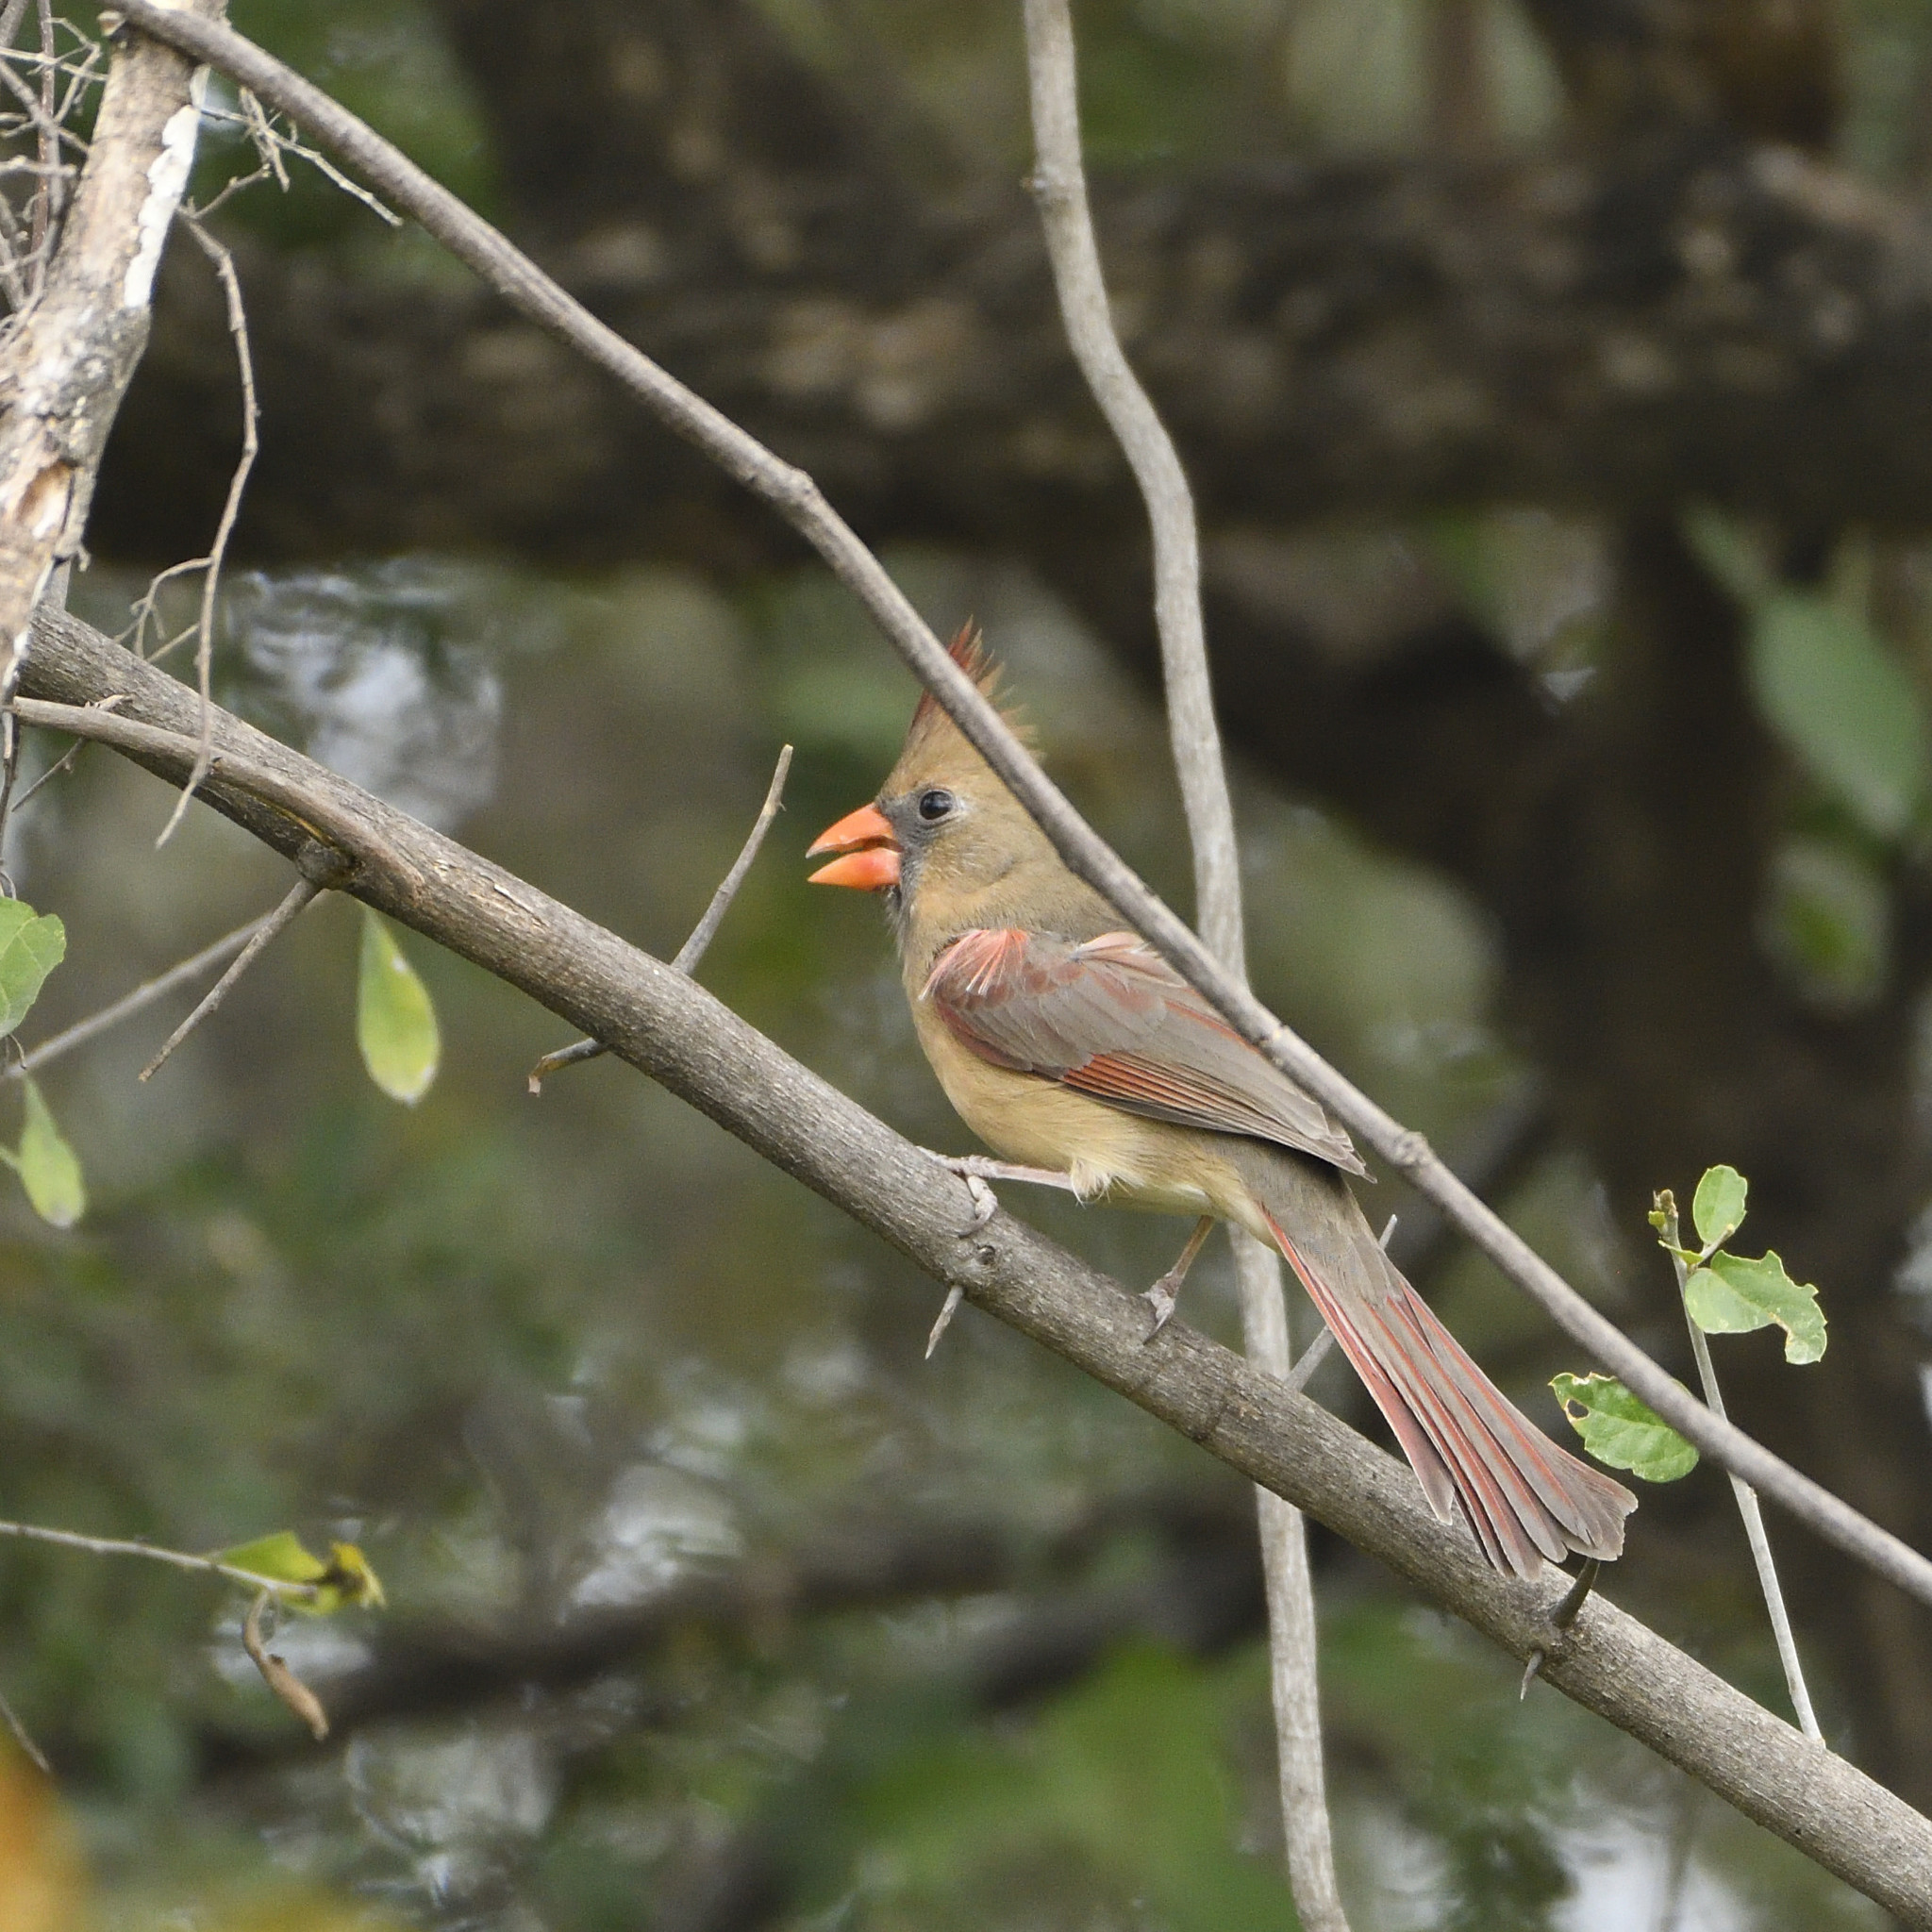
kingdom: Animalia
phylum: Chordata
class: Aves
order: Passeriformes
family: Cardinalidae
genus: Cardinalis
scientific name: Cardinalis cardinalis
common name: Northern cardinal
